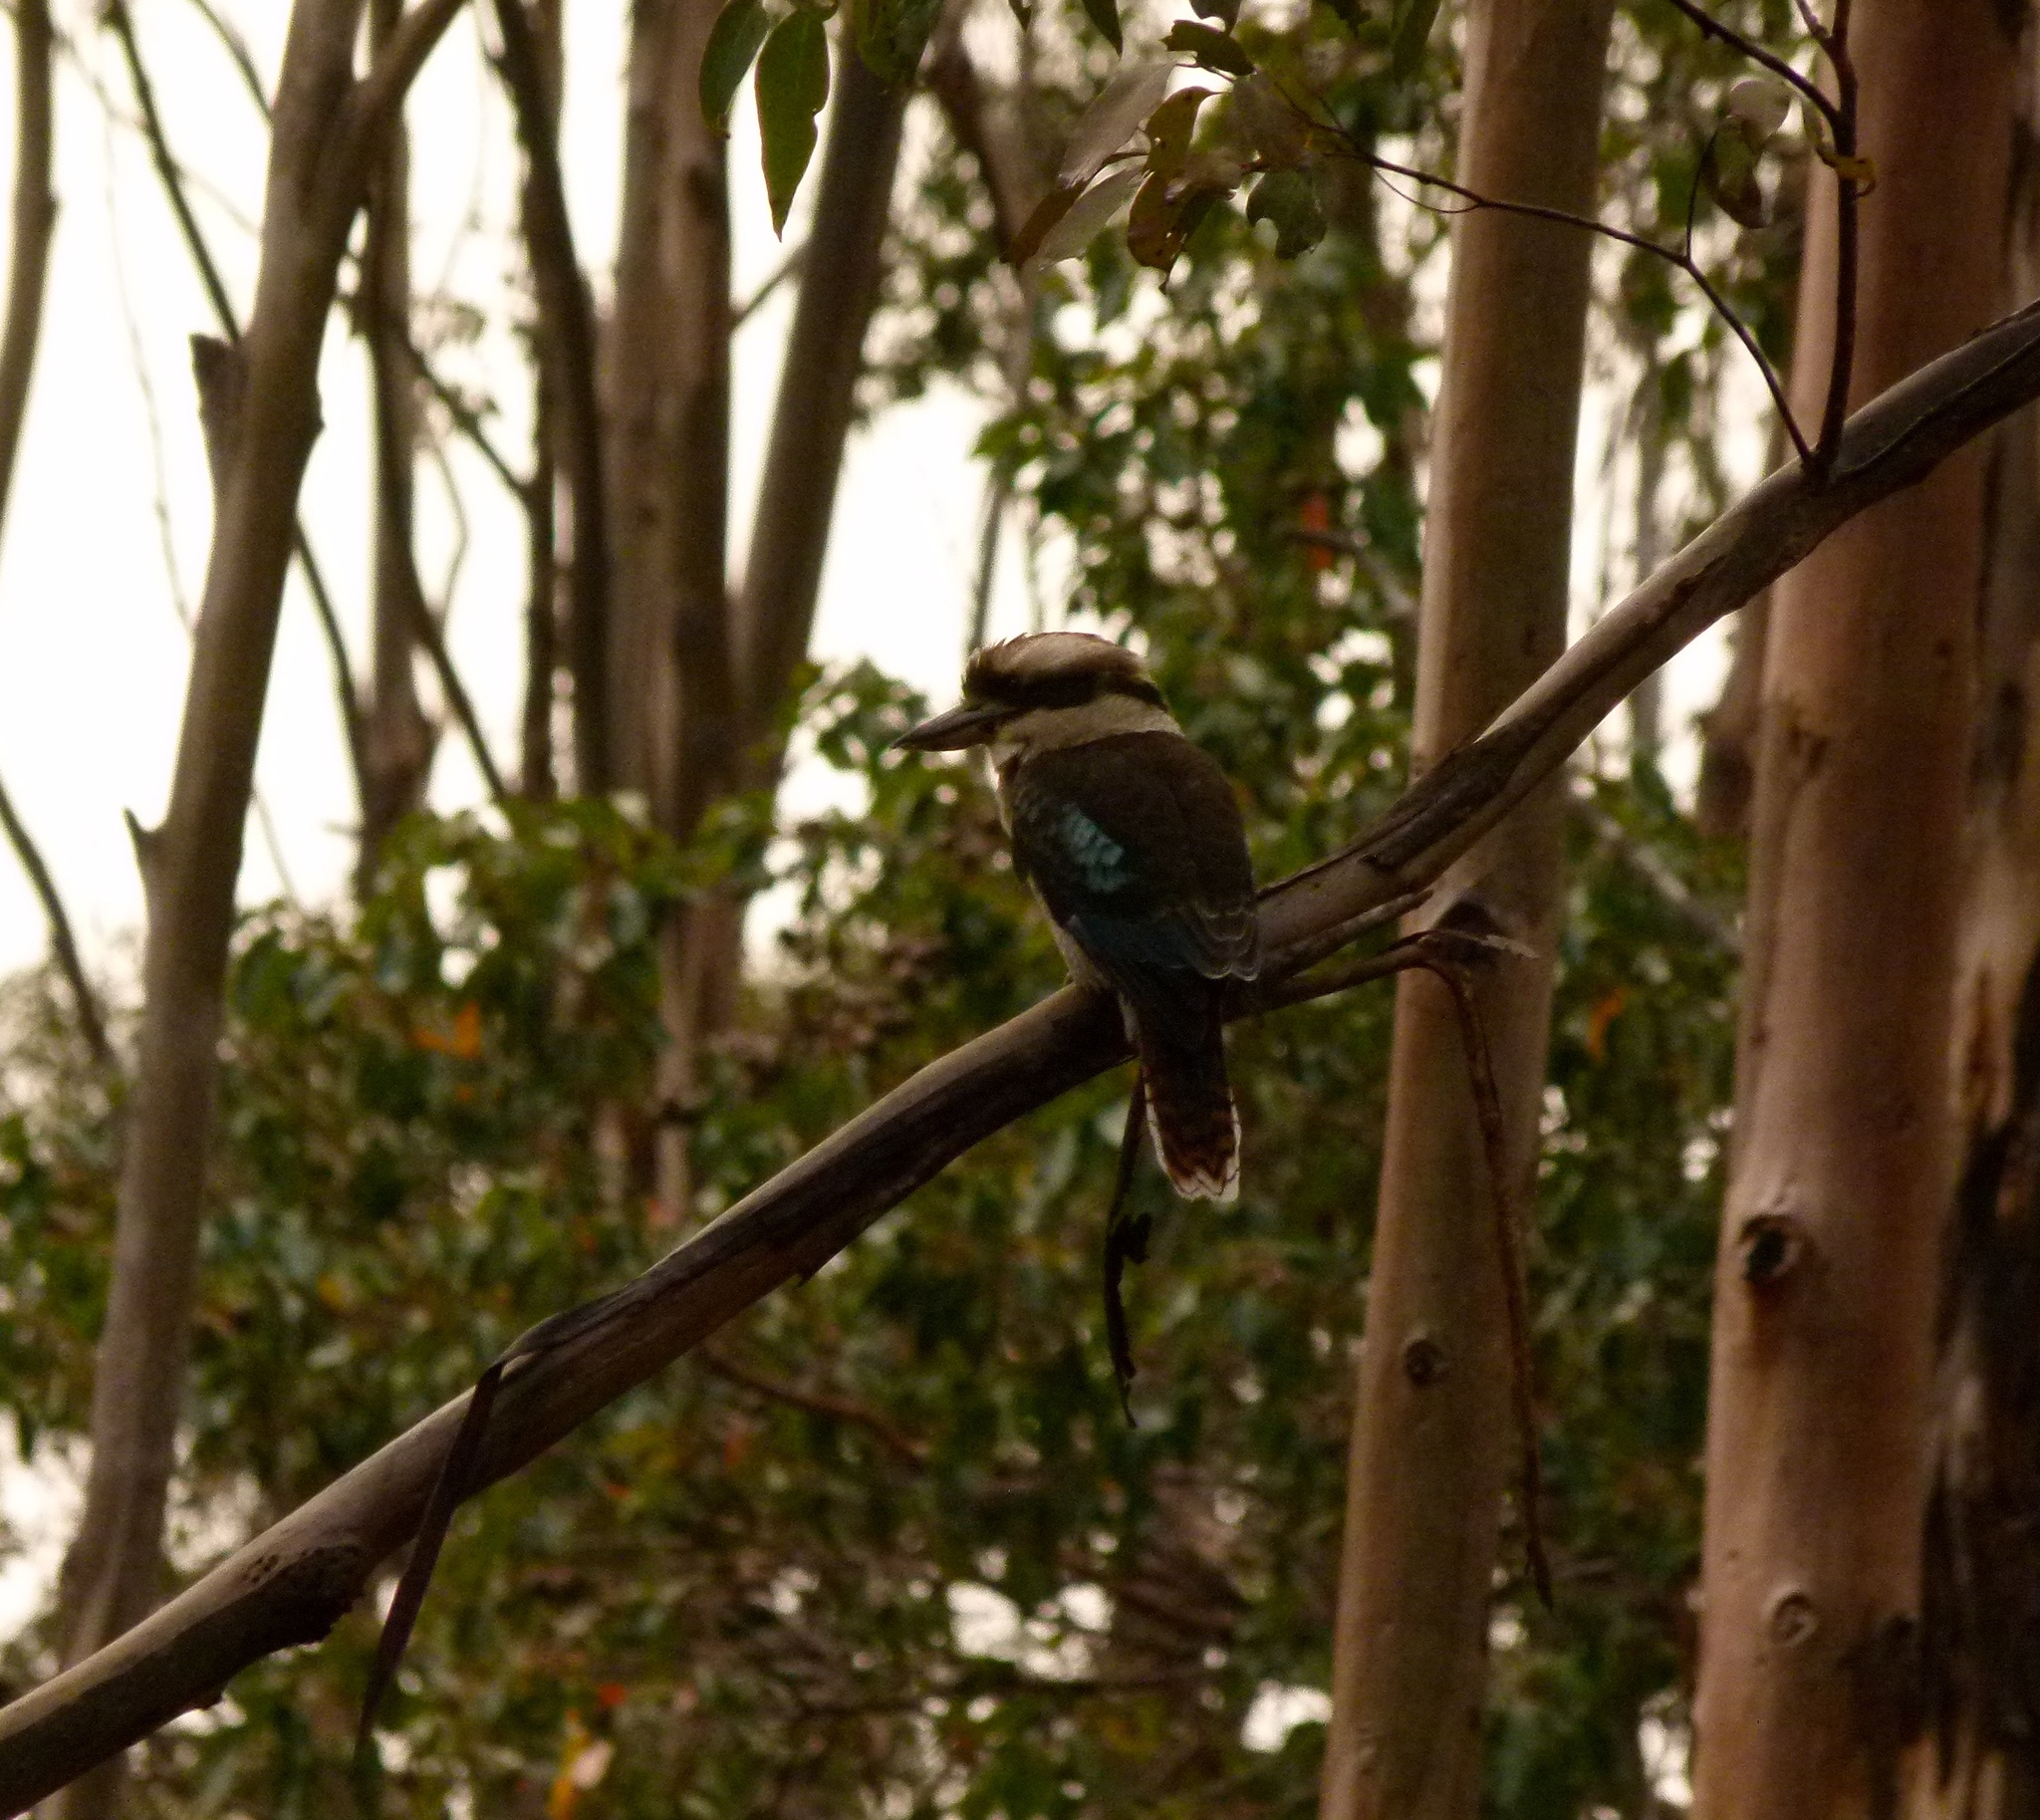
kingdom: Animalia
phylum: Chordata
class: Aves
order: Coraciiformes
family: Alcedinidae
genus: Dacelo
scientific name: Dacelo novaeguineae
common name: Laughing kookaburra
